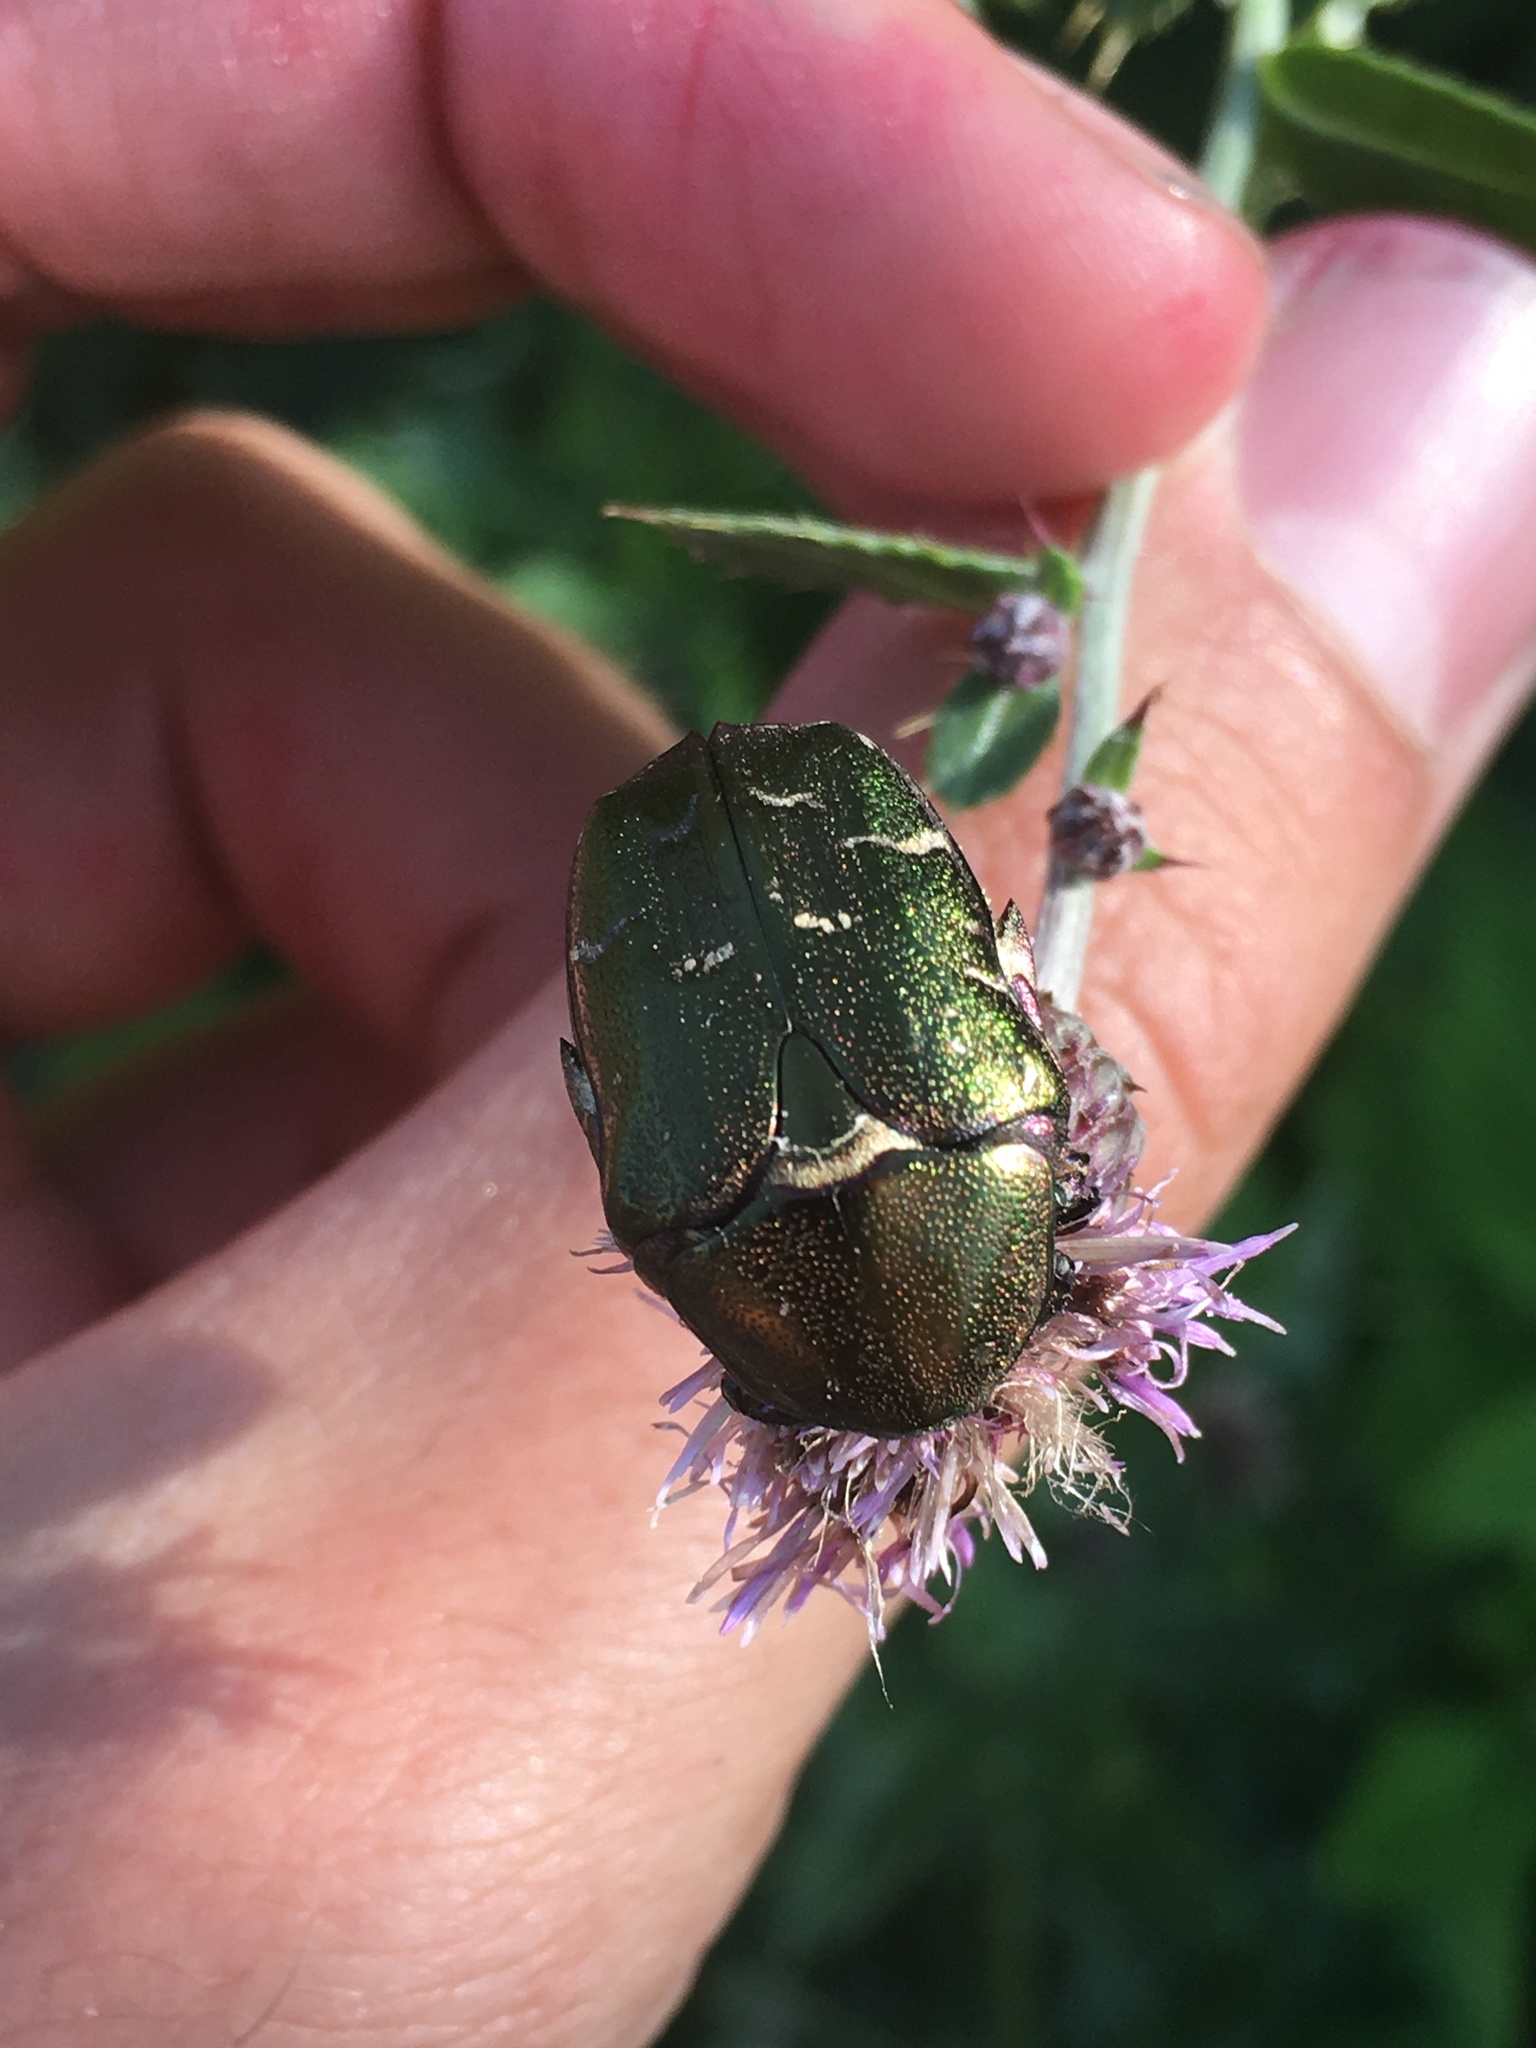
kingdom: Animalia
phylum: Arthropoda
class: Insecta
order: Coleoptera
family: Scarabaeidae
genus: Protaetia
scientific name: Protaetia cuprea
